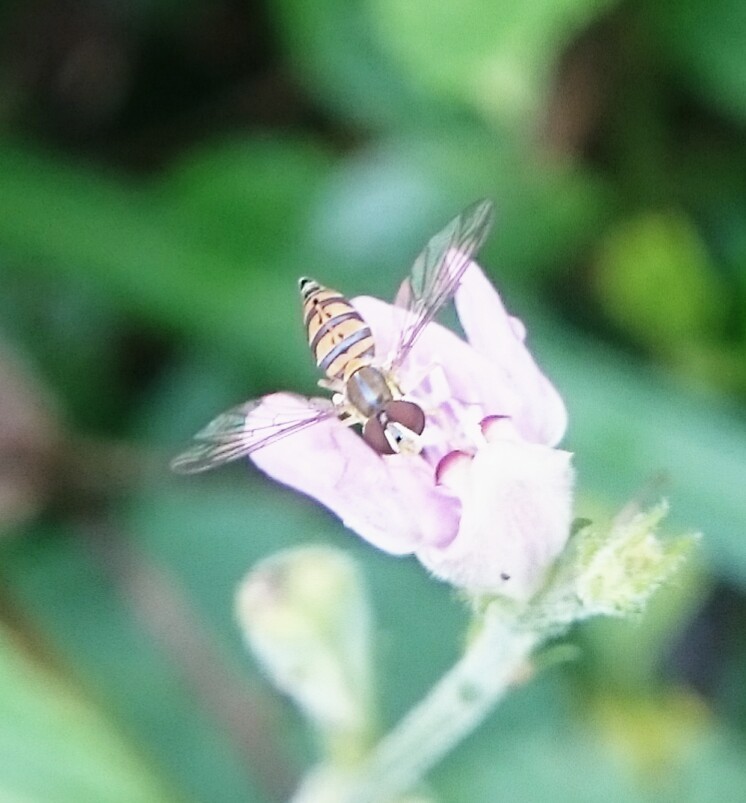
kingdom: Animalia
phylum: Arthropoda
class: Insecta
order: Diptera
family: Syrphidae
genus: Toxomerus
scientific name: Toxomerus crockeri
